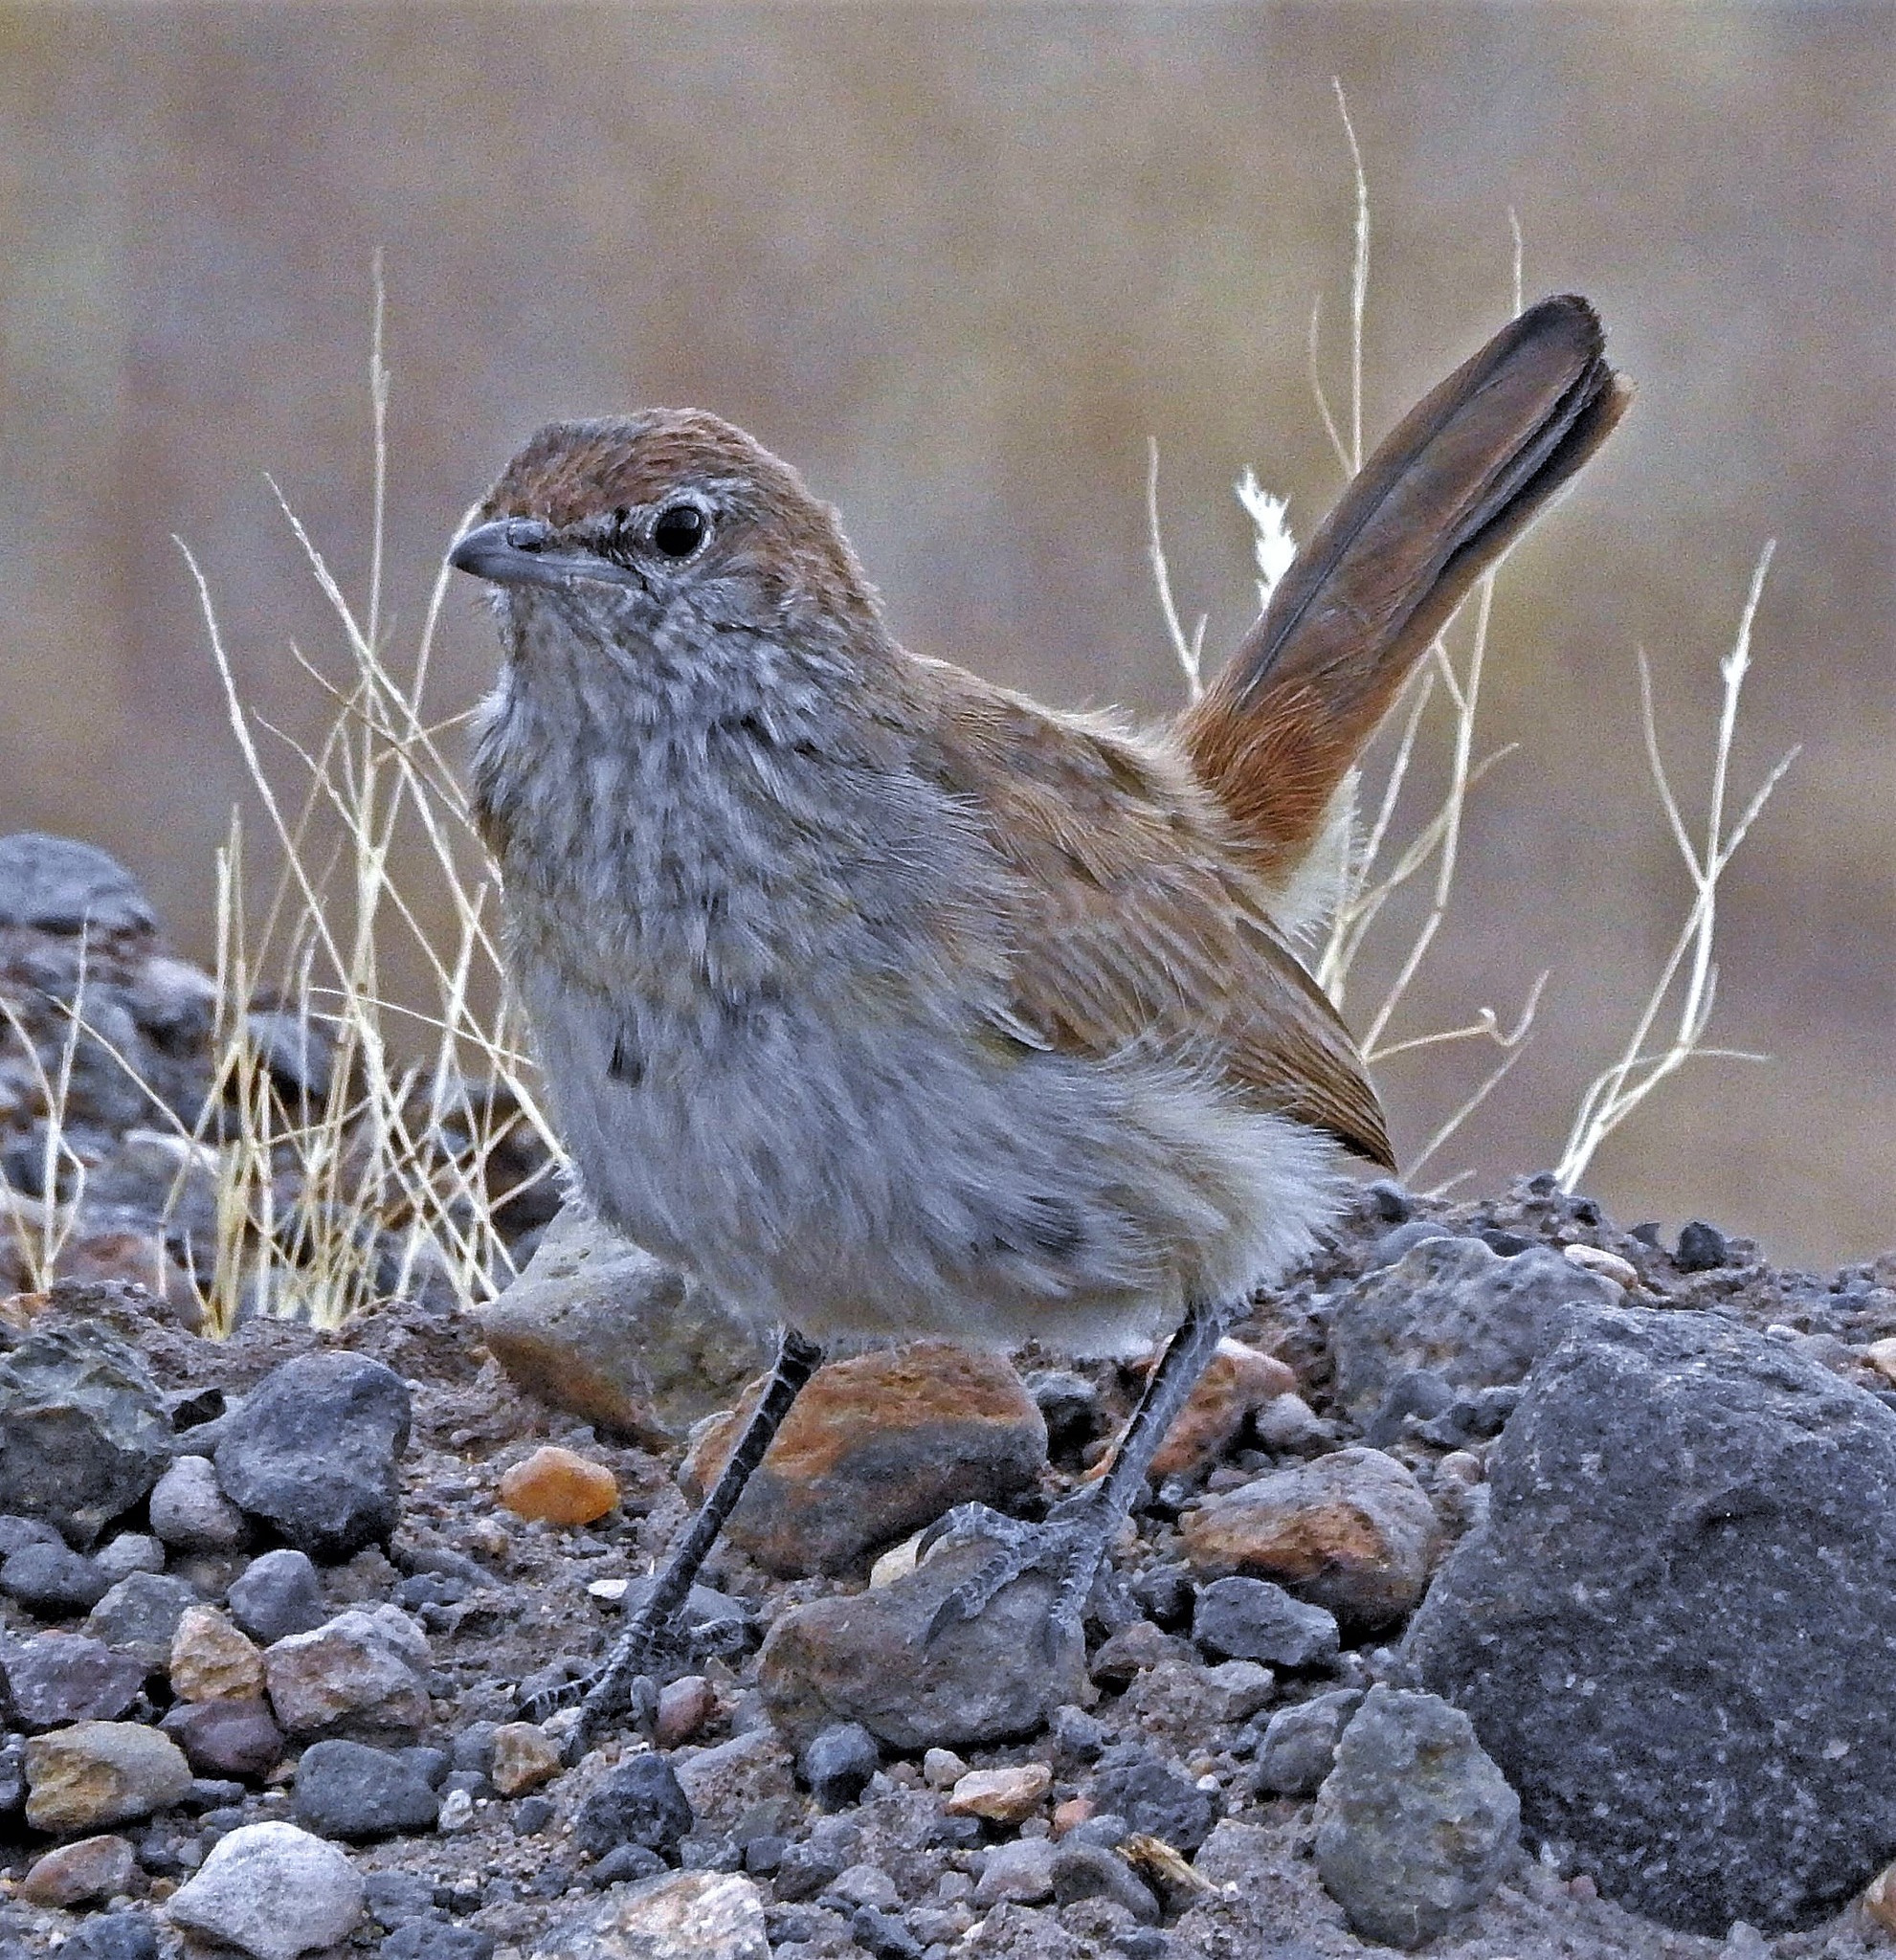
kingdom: Animalia
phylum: Chordata
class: Aves
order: Passeriformes
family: Rhinocryptidae
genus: Teledromas
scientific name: Teledromas fuscus
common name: Sandy gallito
